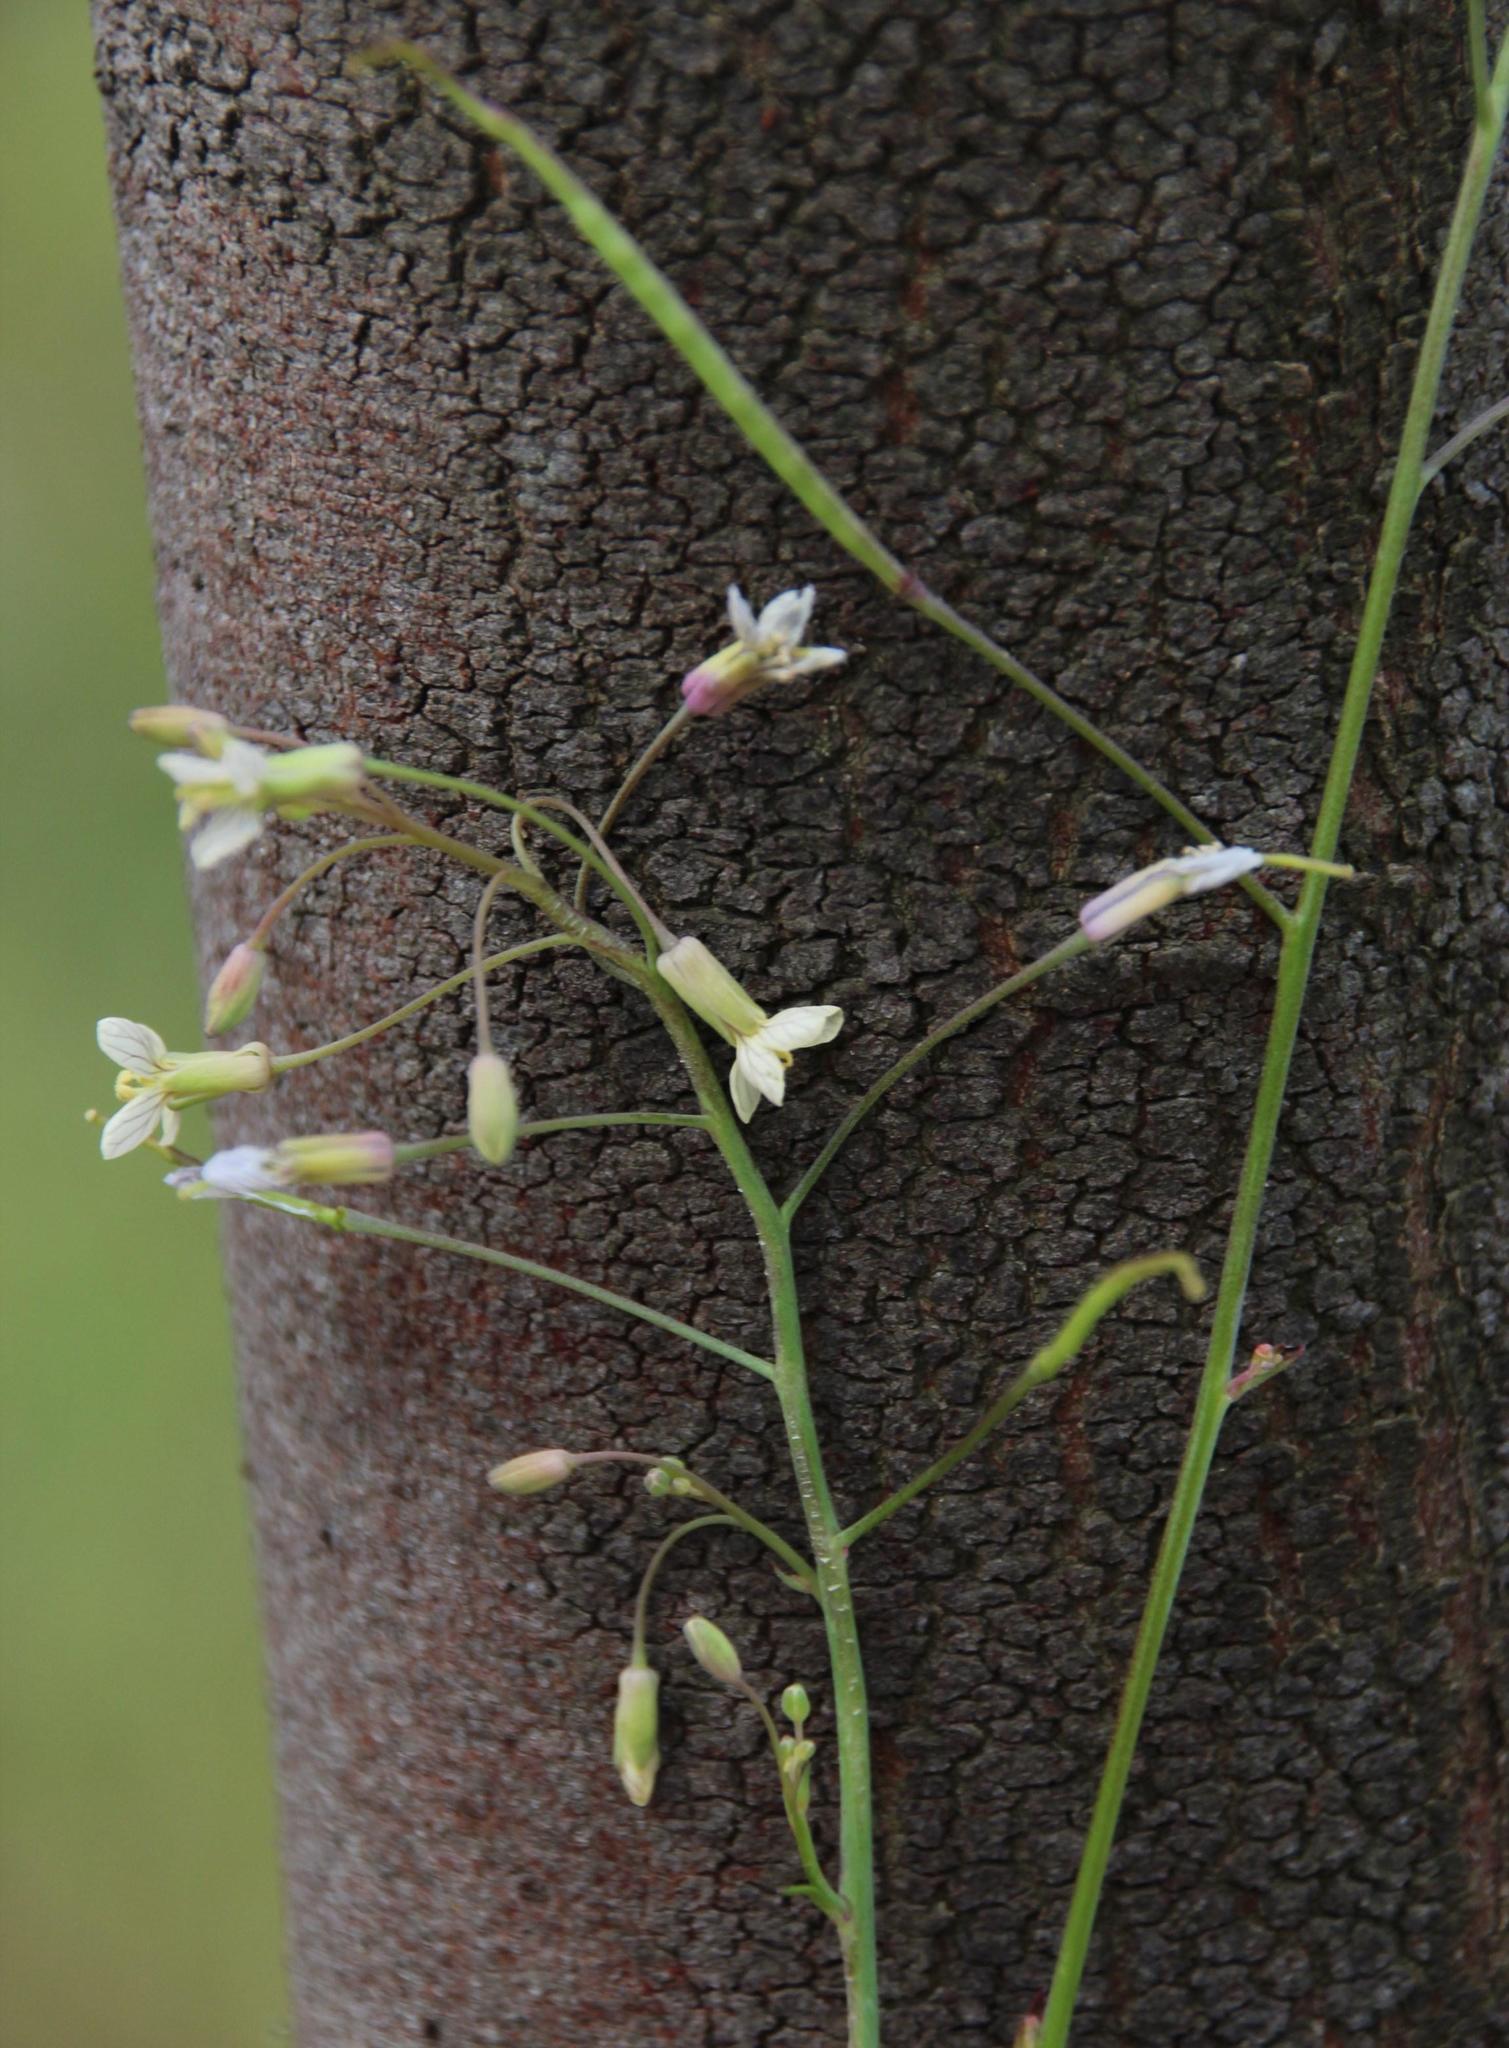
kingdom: Plantae
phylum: Tracheophyta
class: Magnoliopsida
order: Brassicales
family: Brassicaceae
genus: Brassica
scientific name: Brassica oxyrrhina
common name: Smooth-stem turnip
